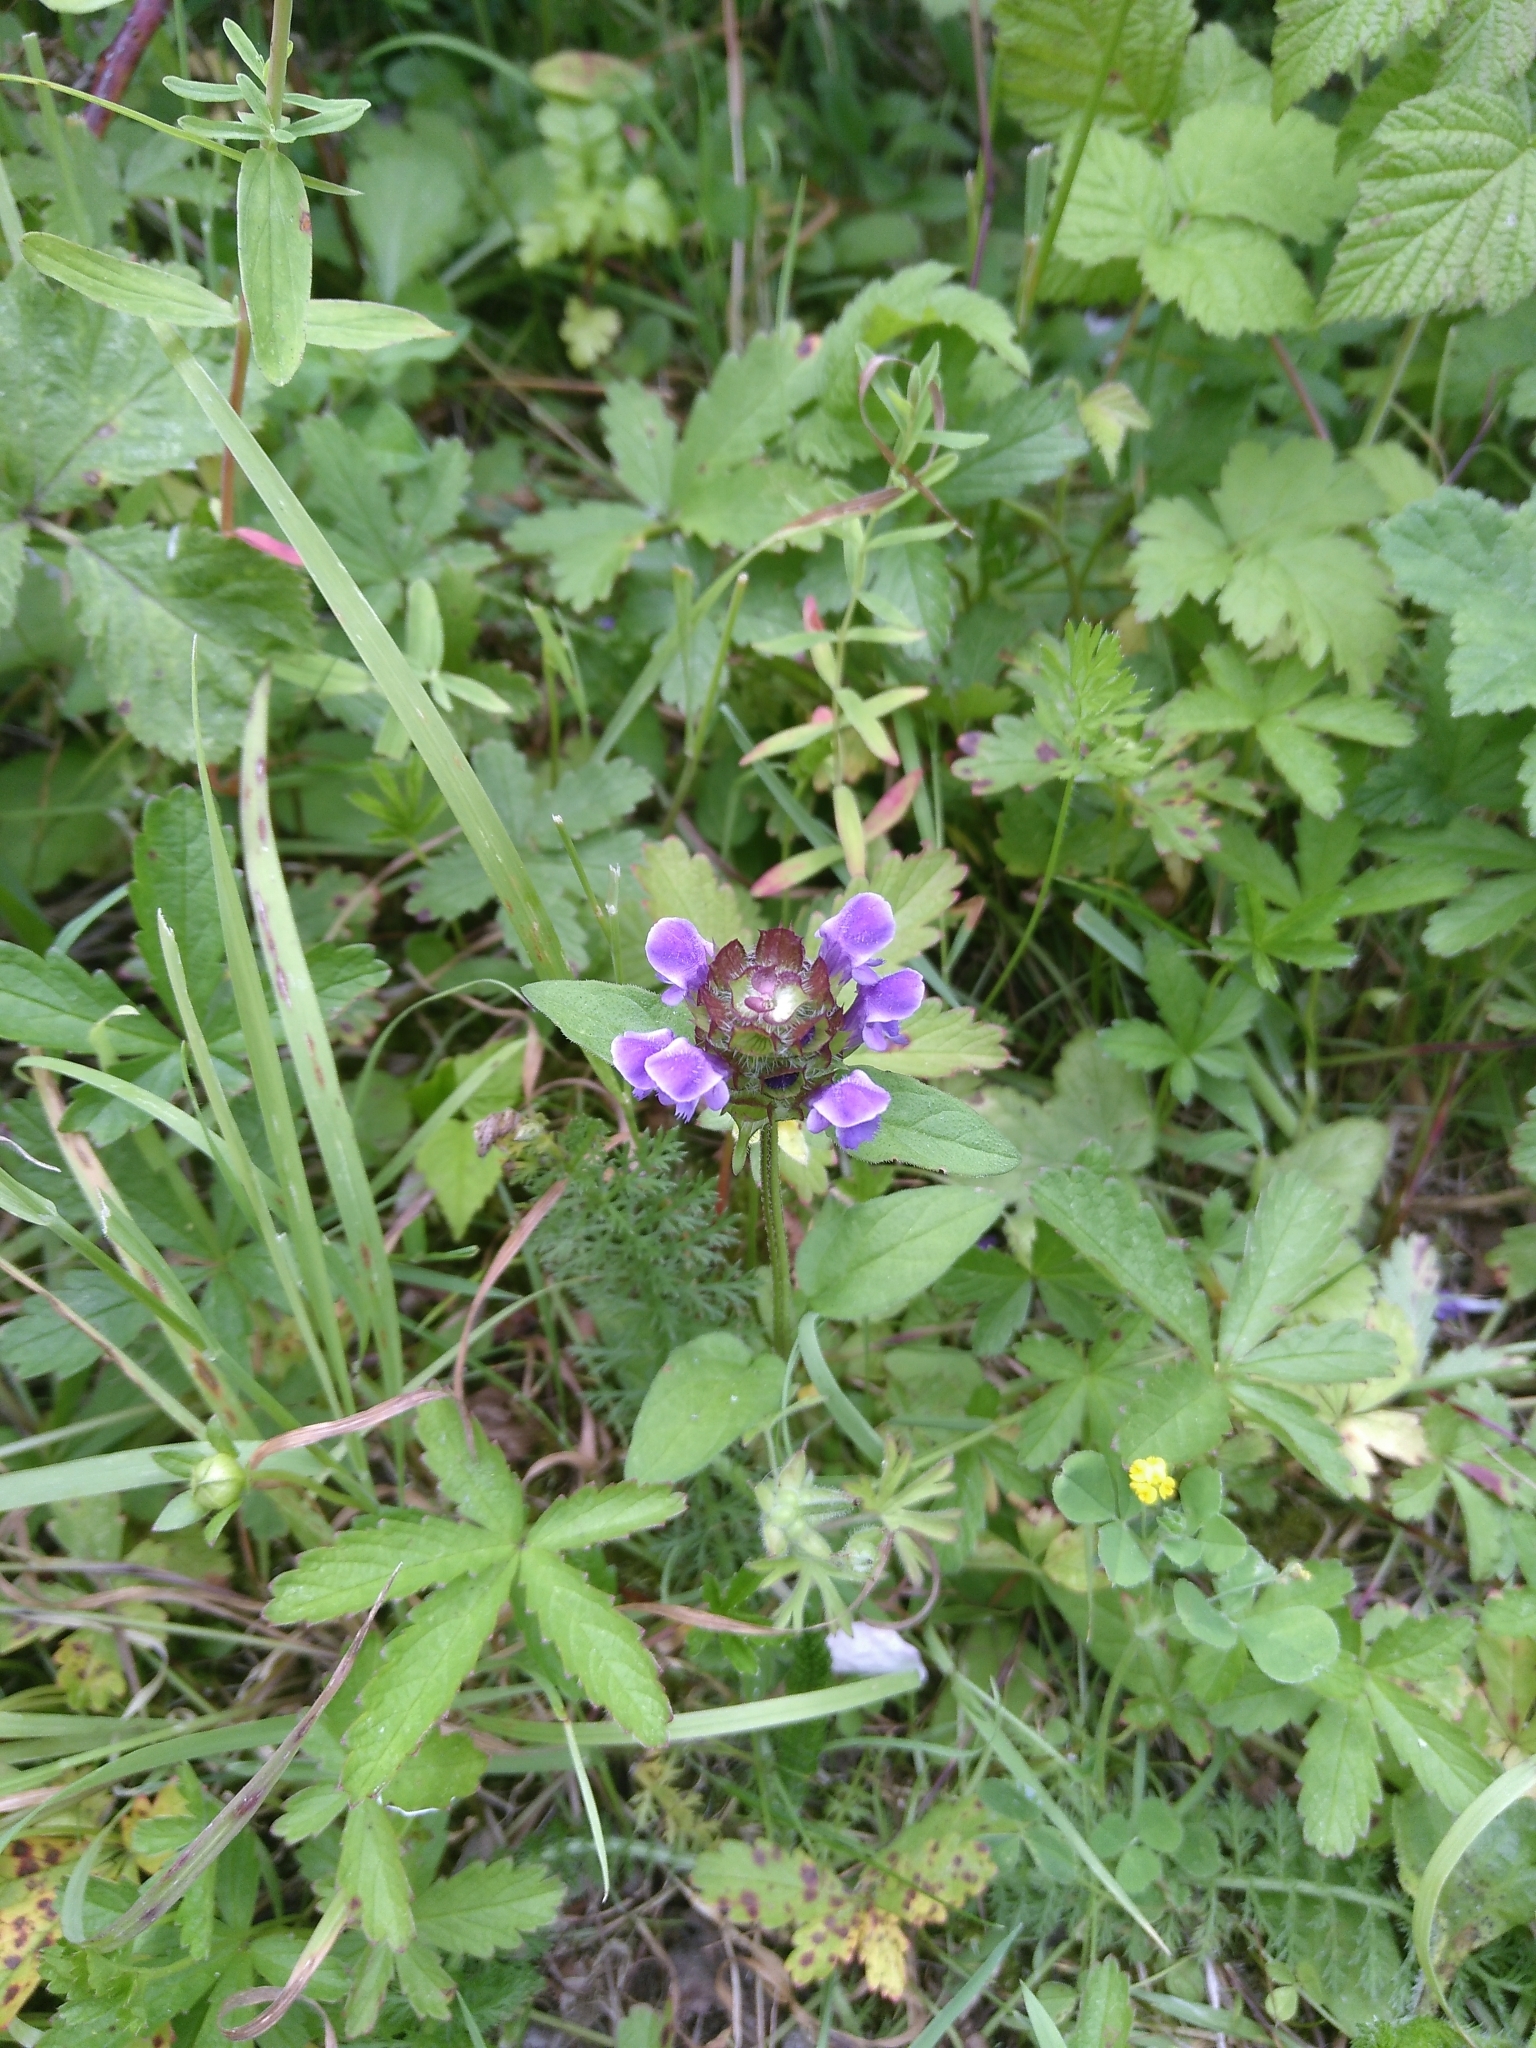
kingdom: Plantae
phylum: Tracheophyta
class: Magnoliopsida
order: Lamiales
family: Lamiaceae
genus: Prunella
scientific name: Prunella vulgaris
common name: Heal-all
